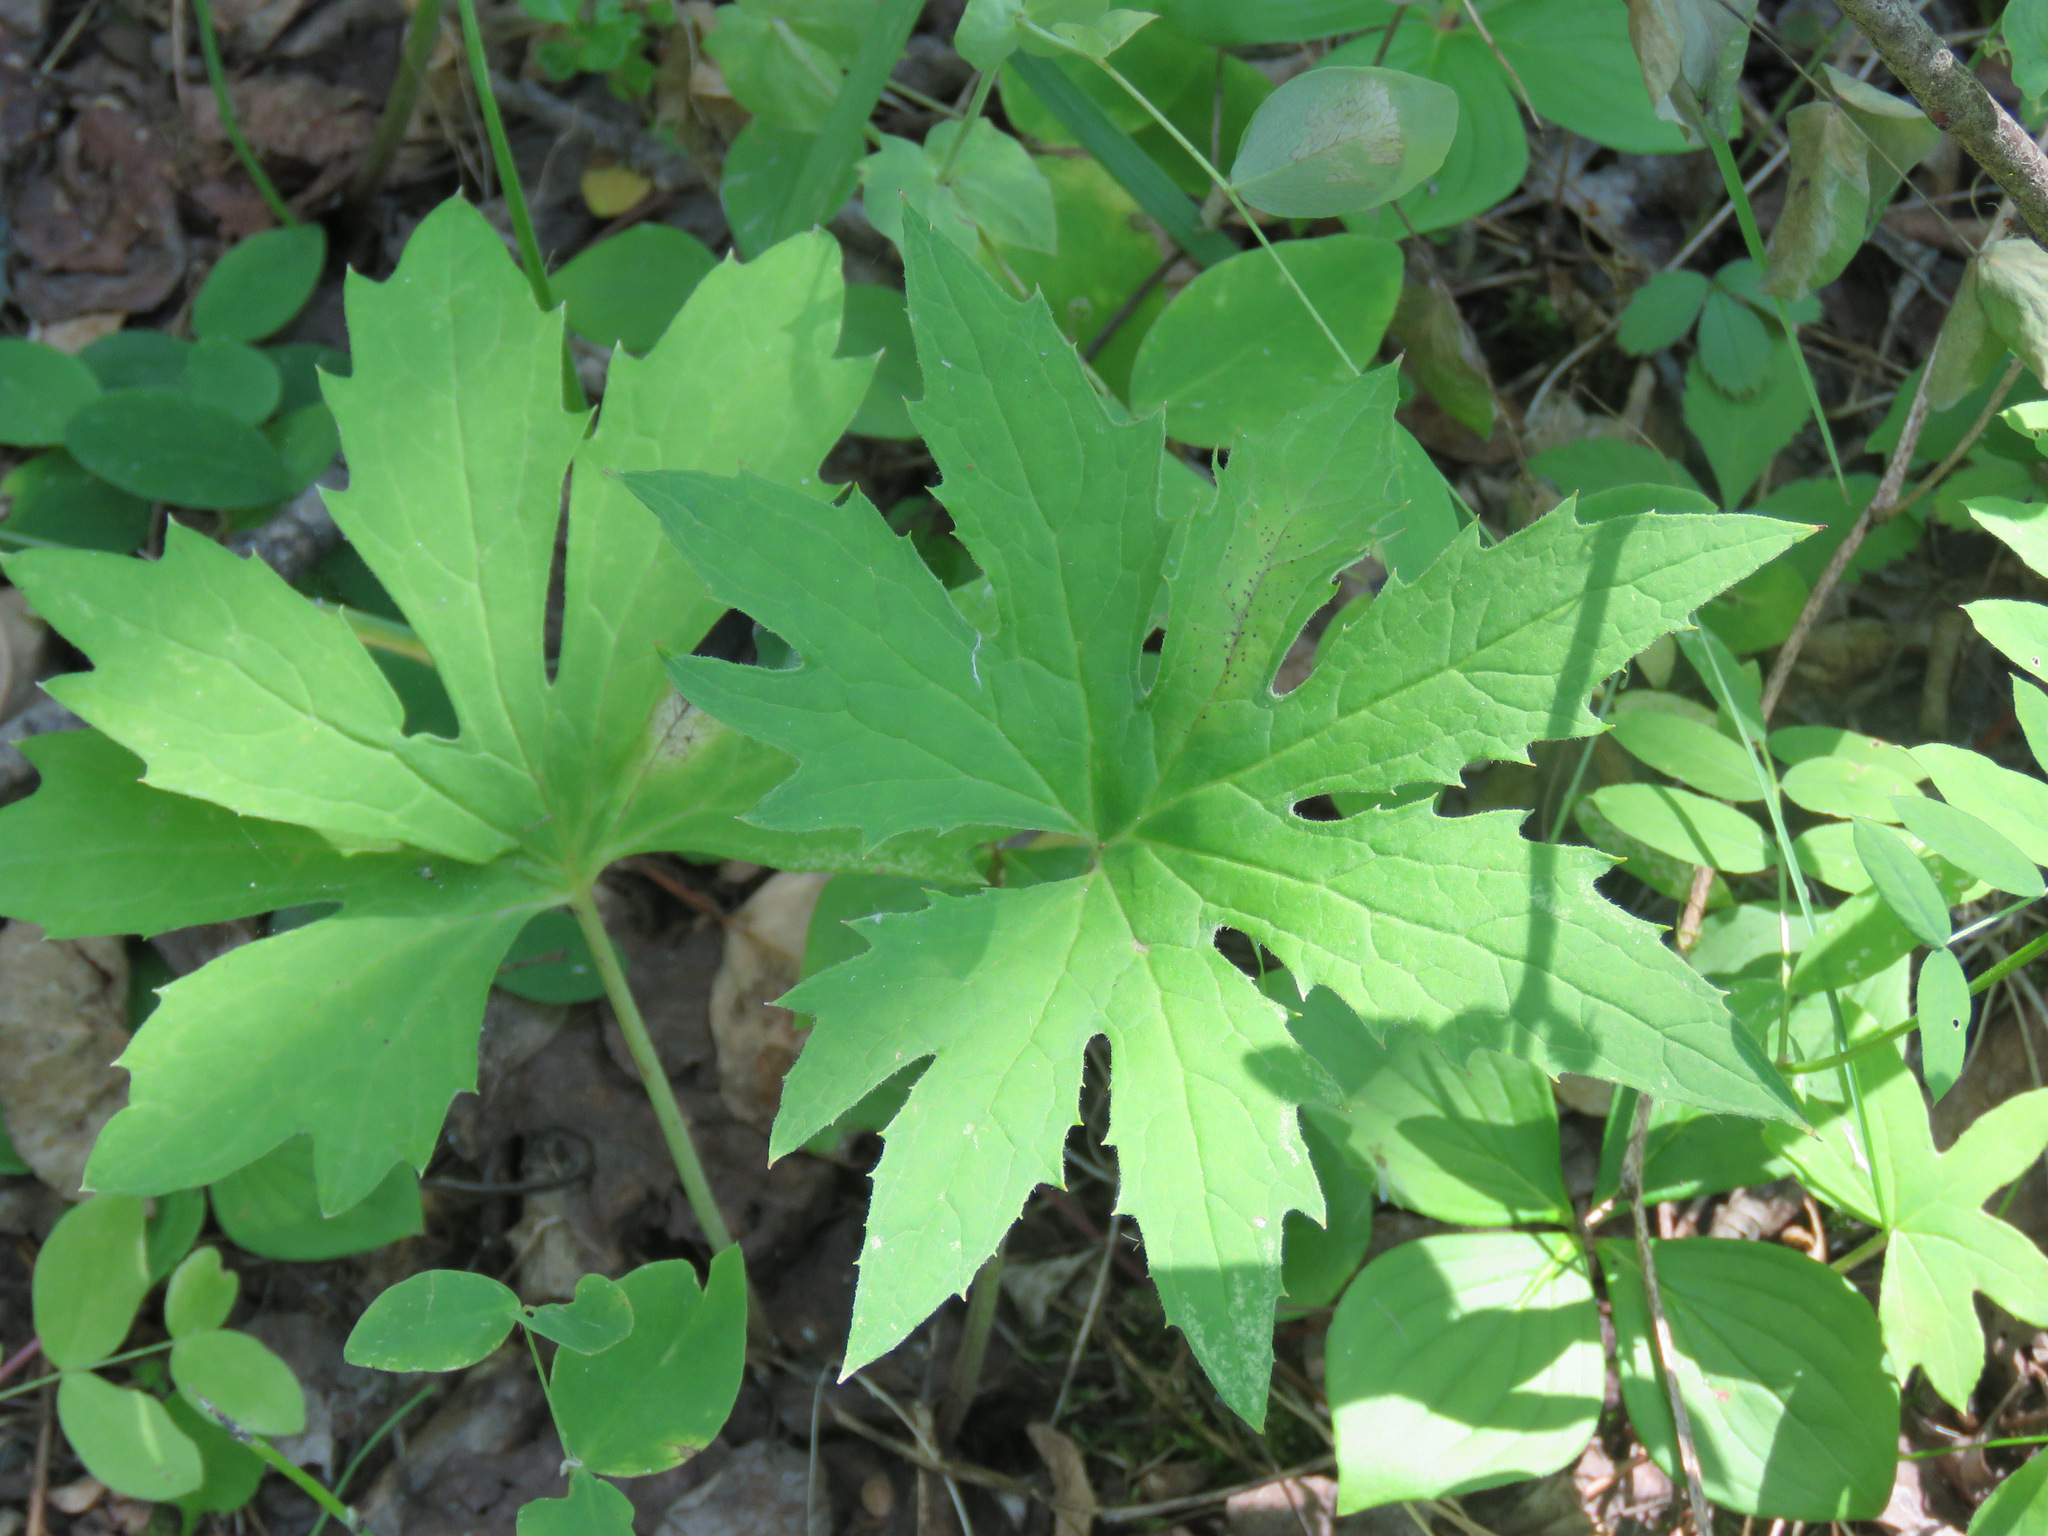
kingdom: Plantae
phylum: Tracheophyta
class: Magnoliopsida
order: Asterales
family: Asteraceae
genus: Petasites
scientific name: Petasites frigidus
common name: Arctic butterbur
